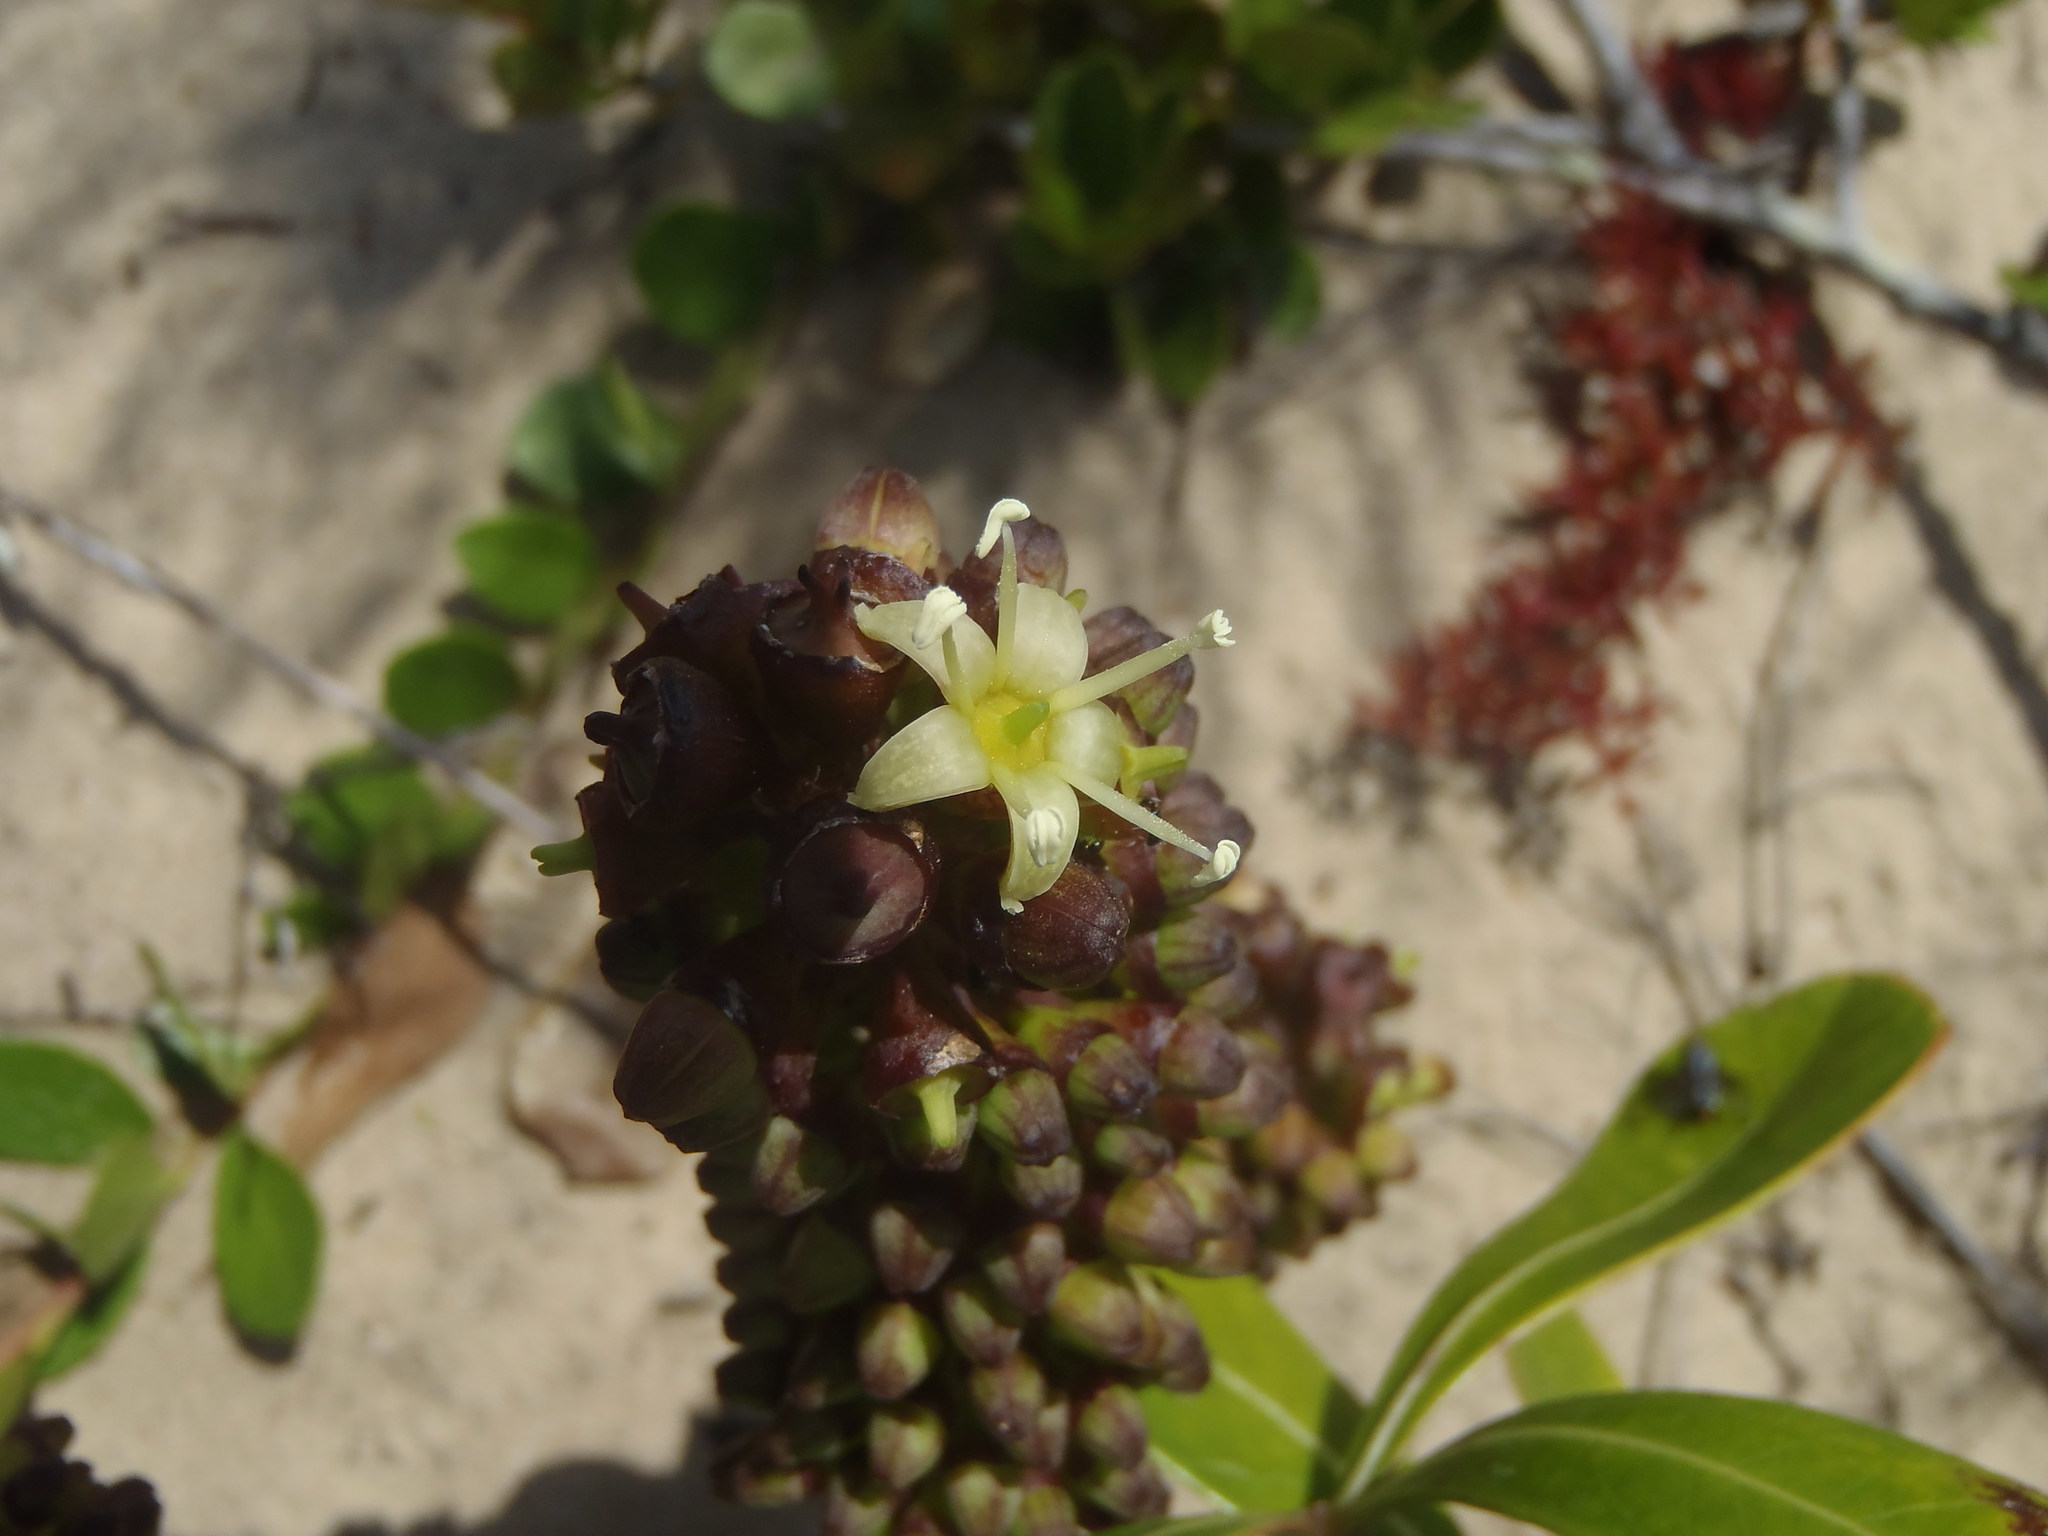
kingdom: Plantae
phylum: Tracheophyta
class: Magnoliopsida
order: Apiales
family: Araliaceae
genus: Cussonia
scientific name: Cussonia thyrsiflora
